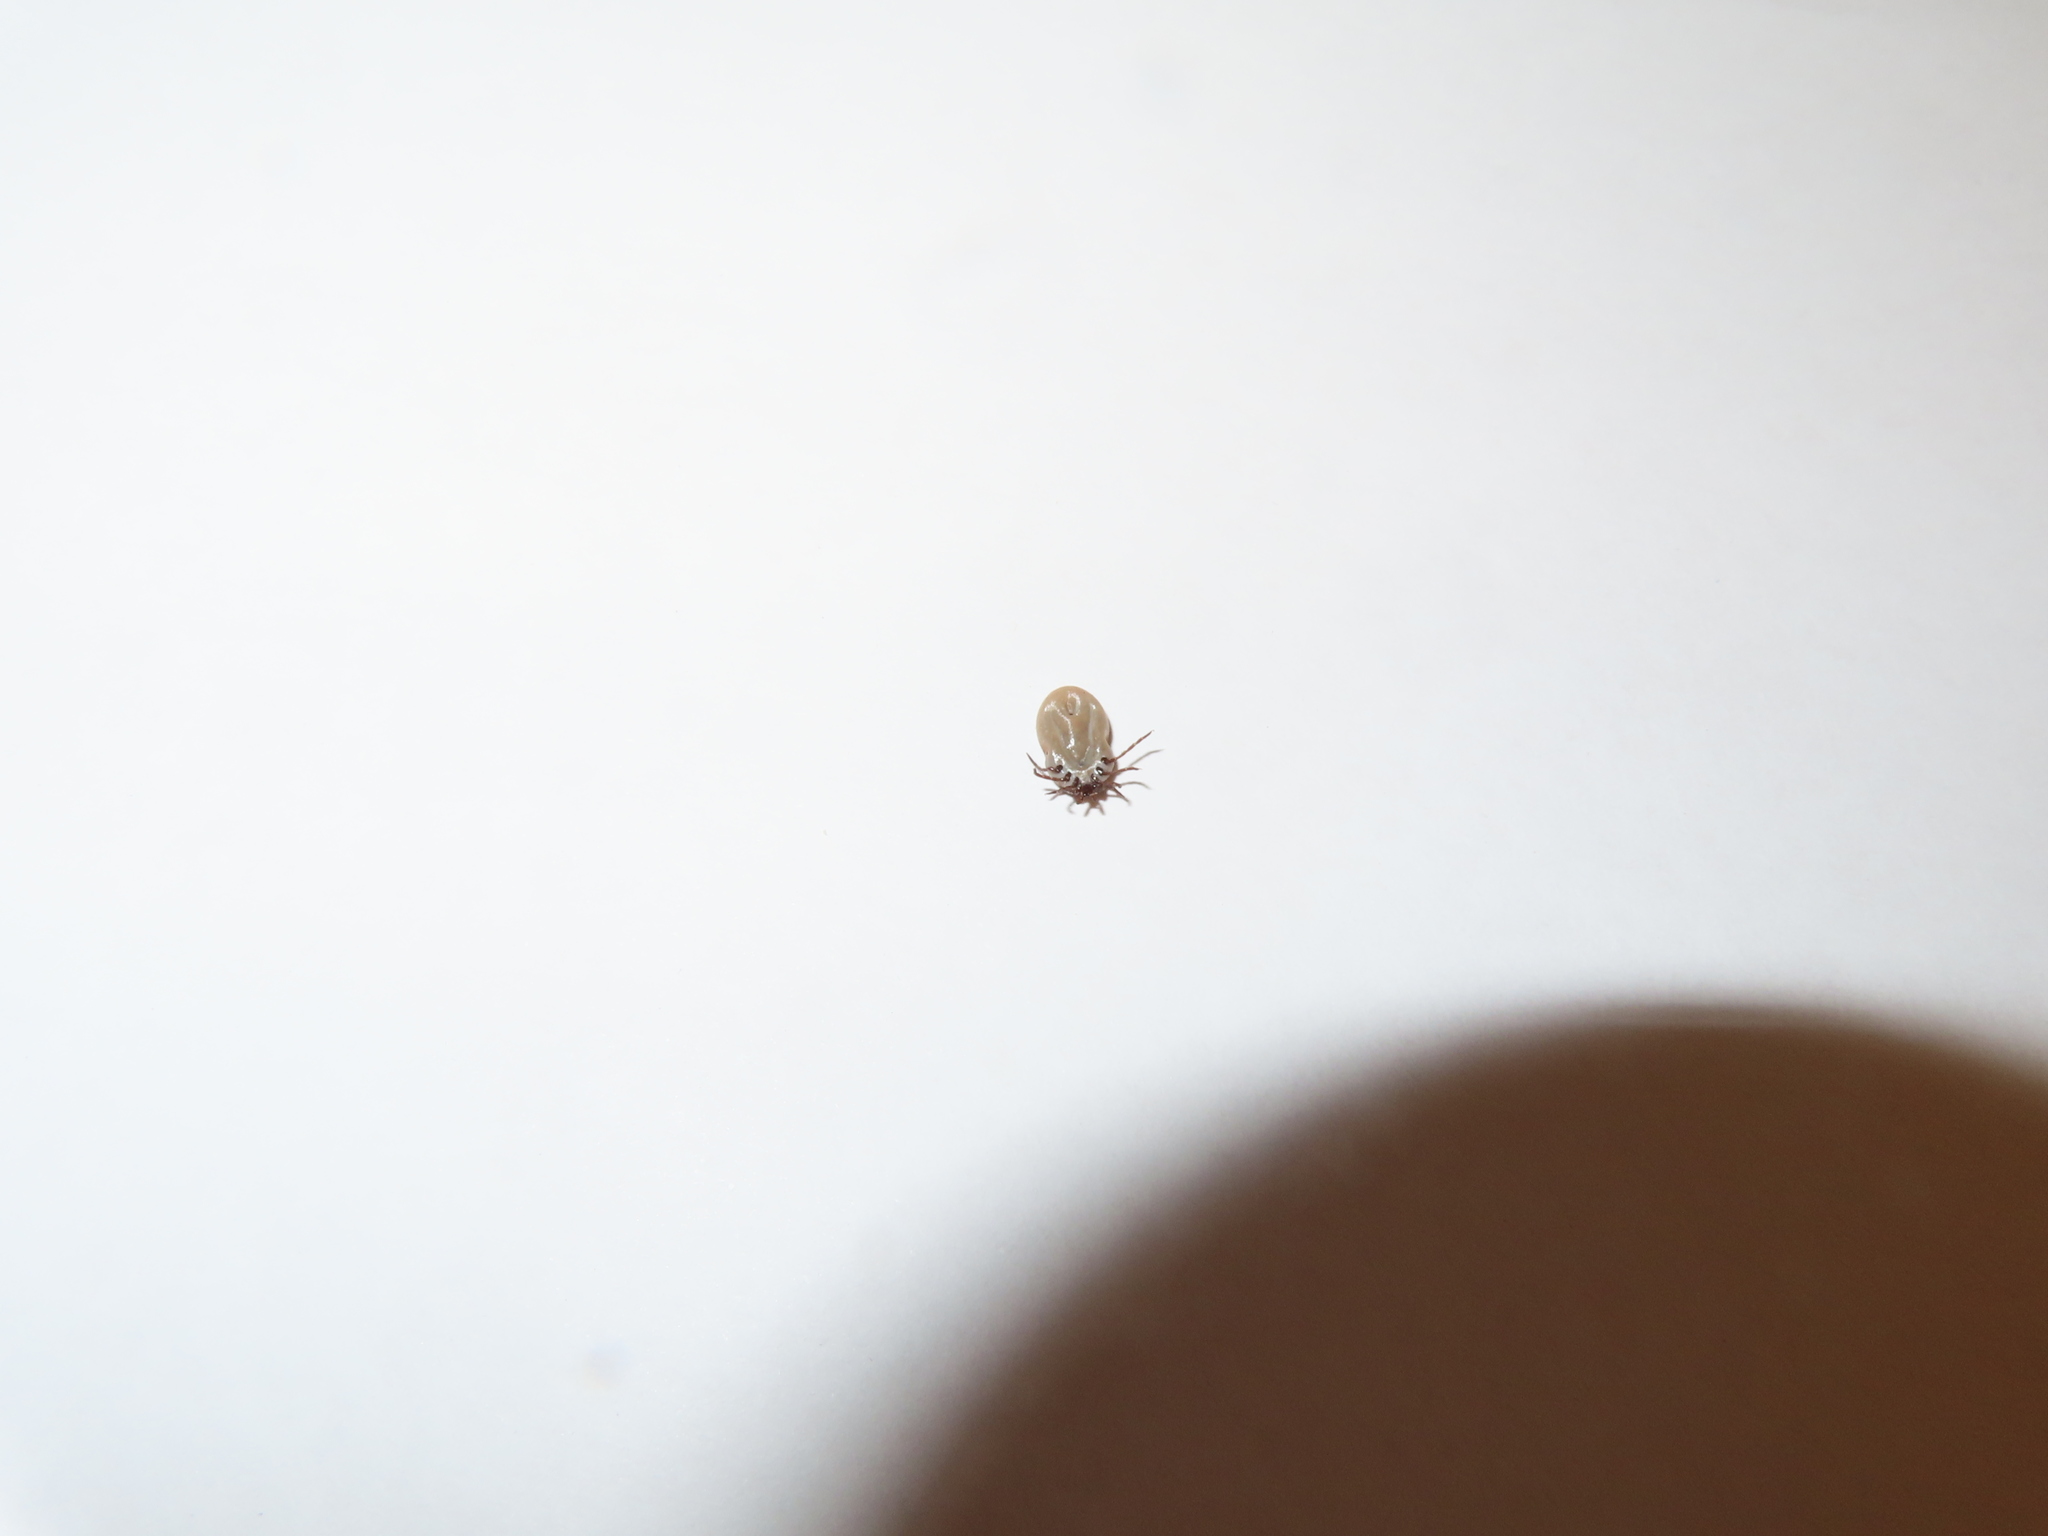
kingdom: Animalia
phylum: Arthropoda
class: Arachnida
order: Ixodida
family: Ixodidae
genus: Ixodes
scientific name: Ixodes scapularis
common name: Black legged tick
